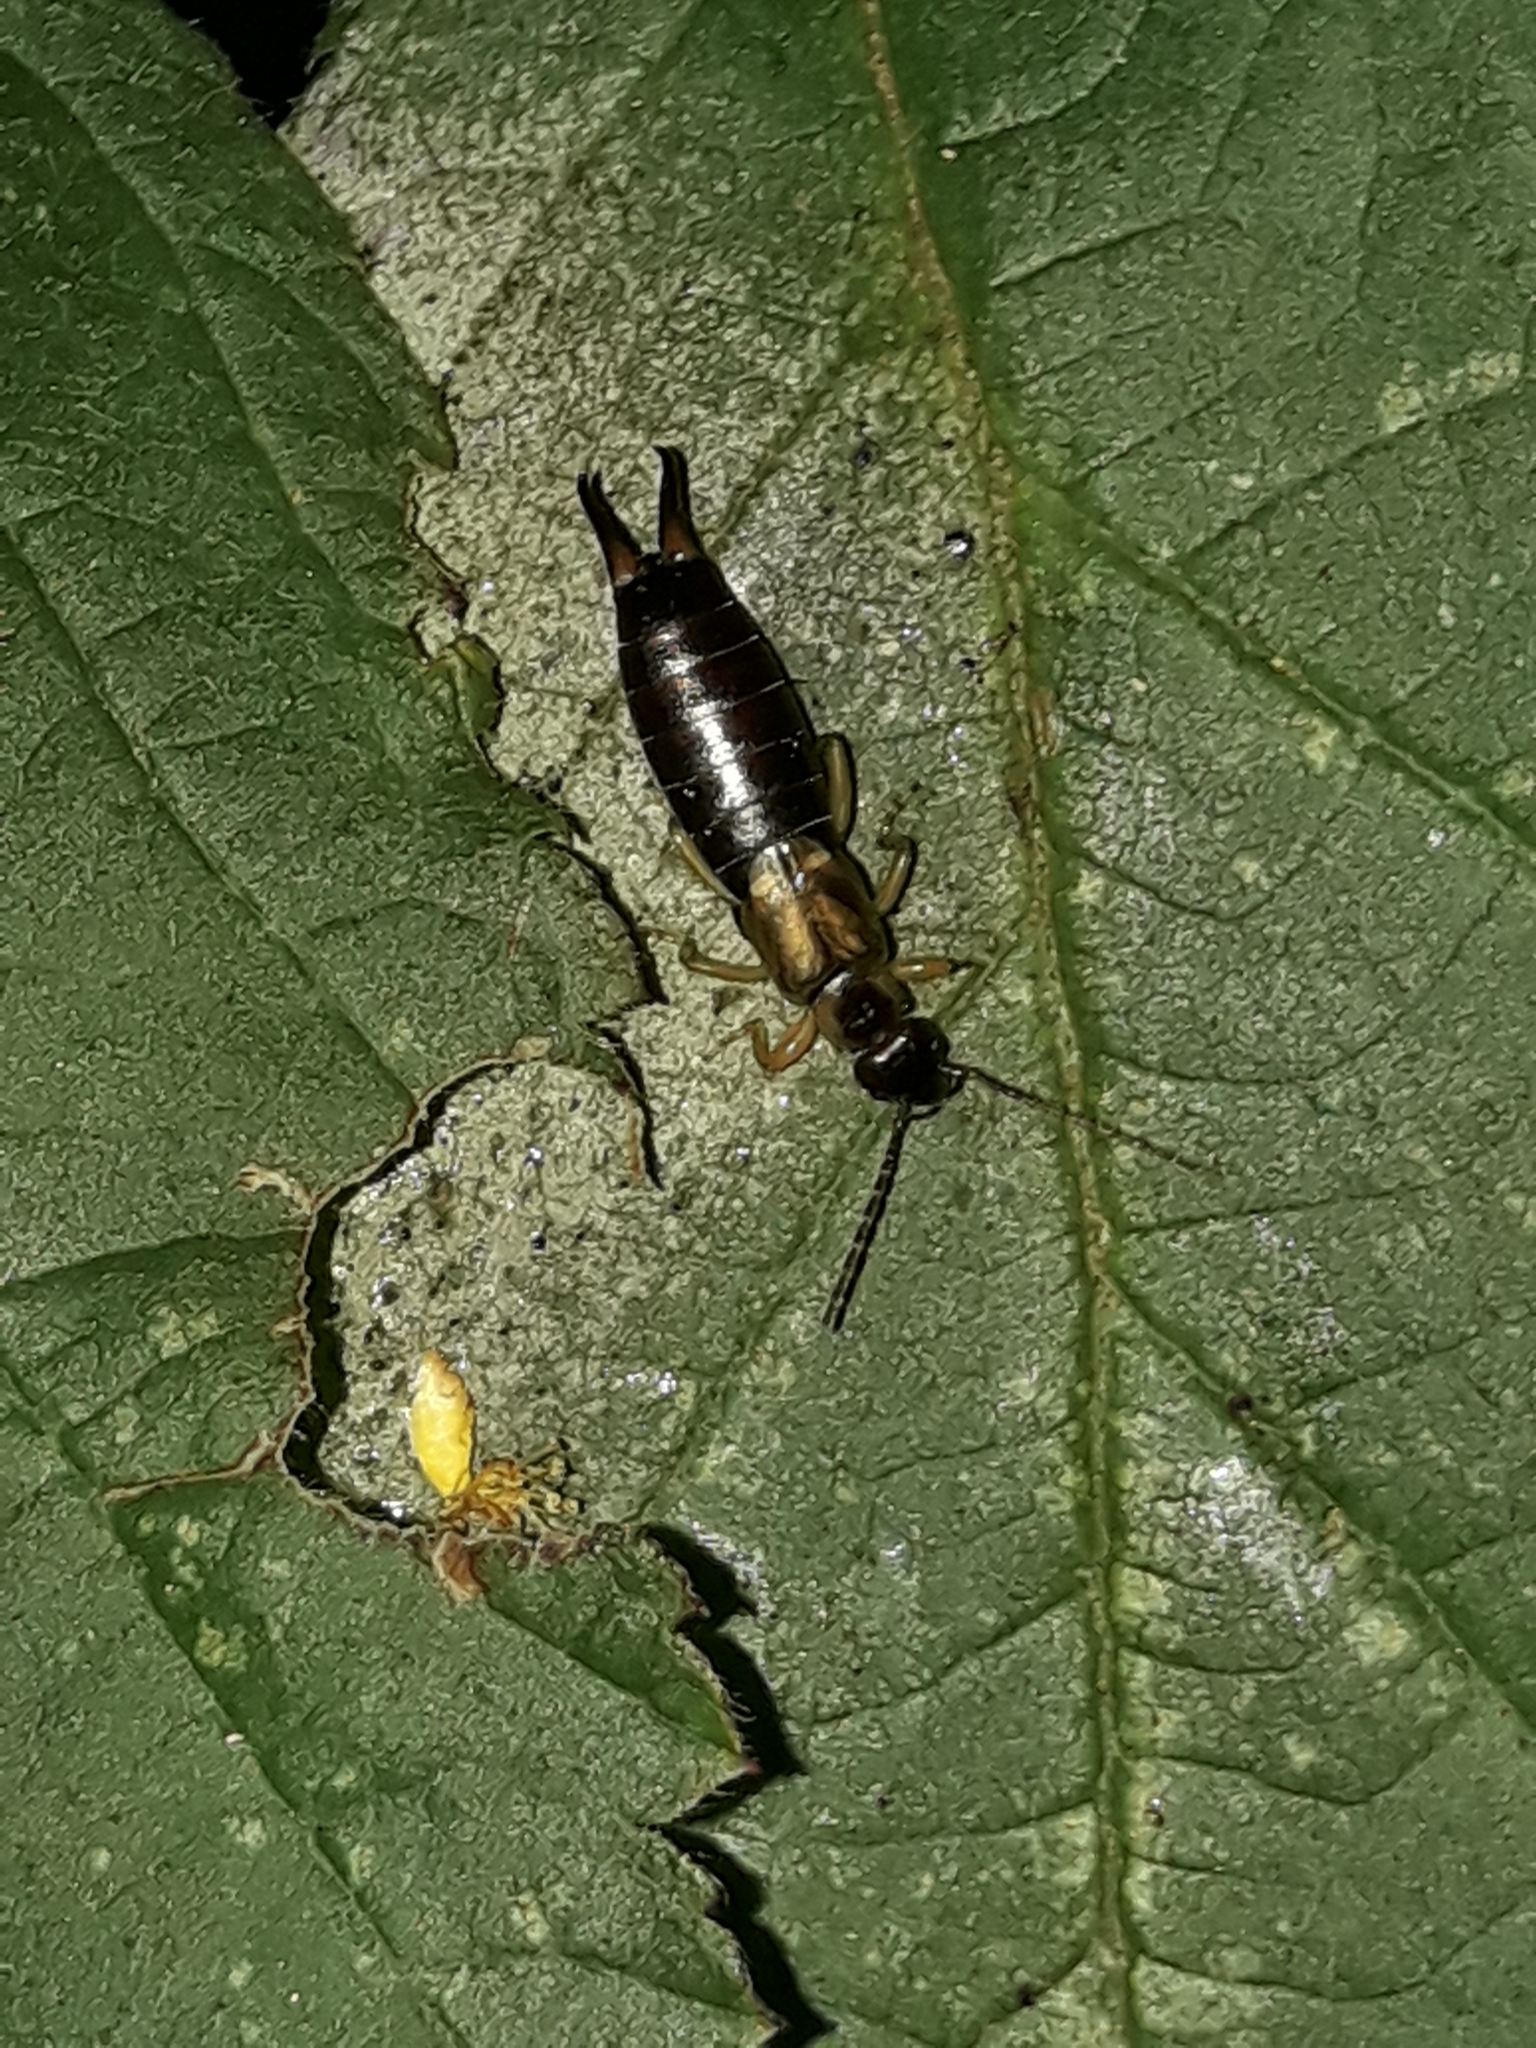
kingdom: Animalia
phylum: Arthropoda
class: Insecta
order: Dermaptera
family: Forficulidae
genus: Forficula
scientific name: Forficula
